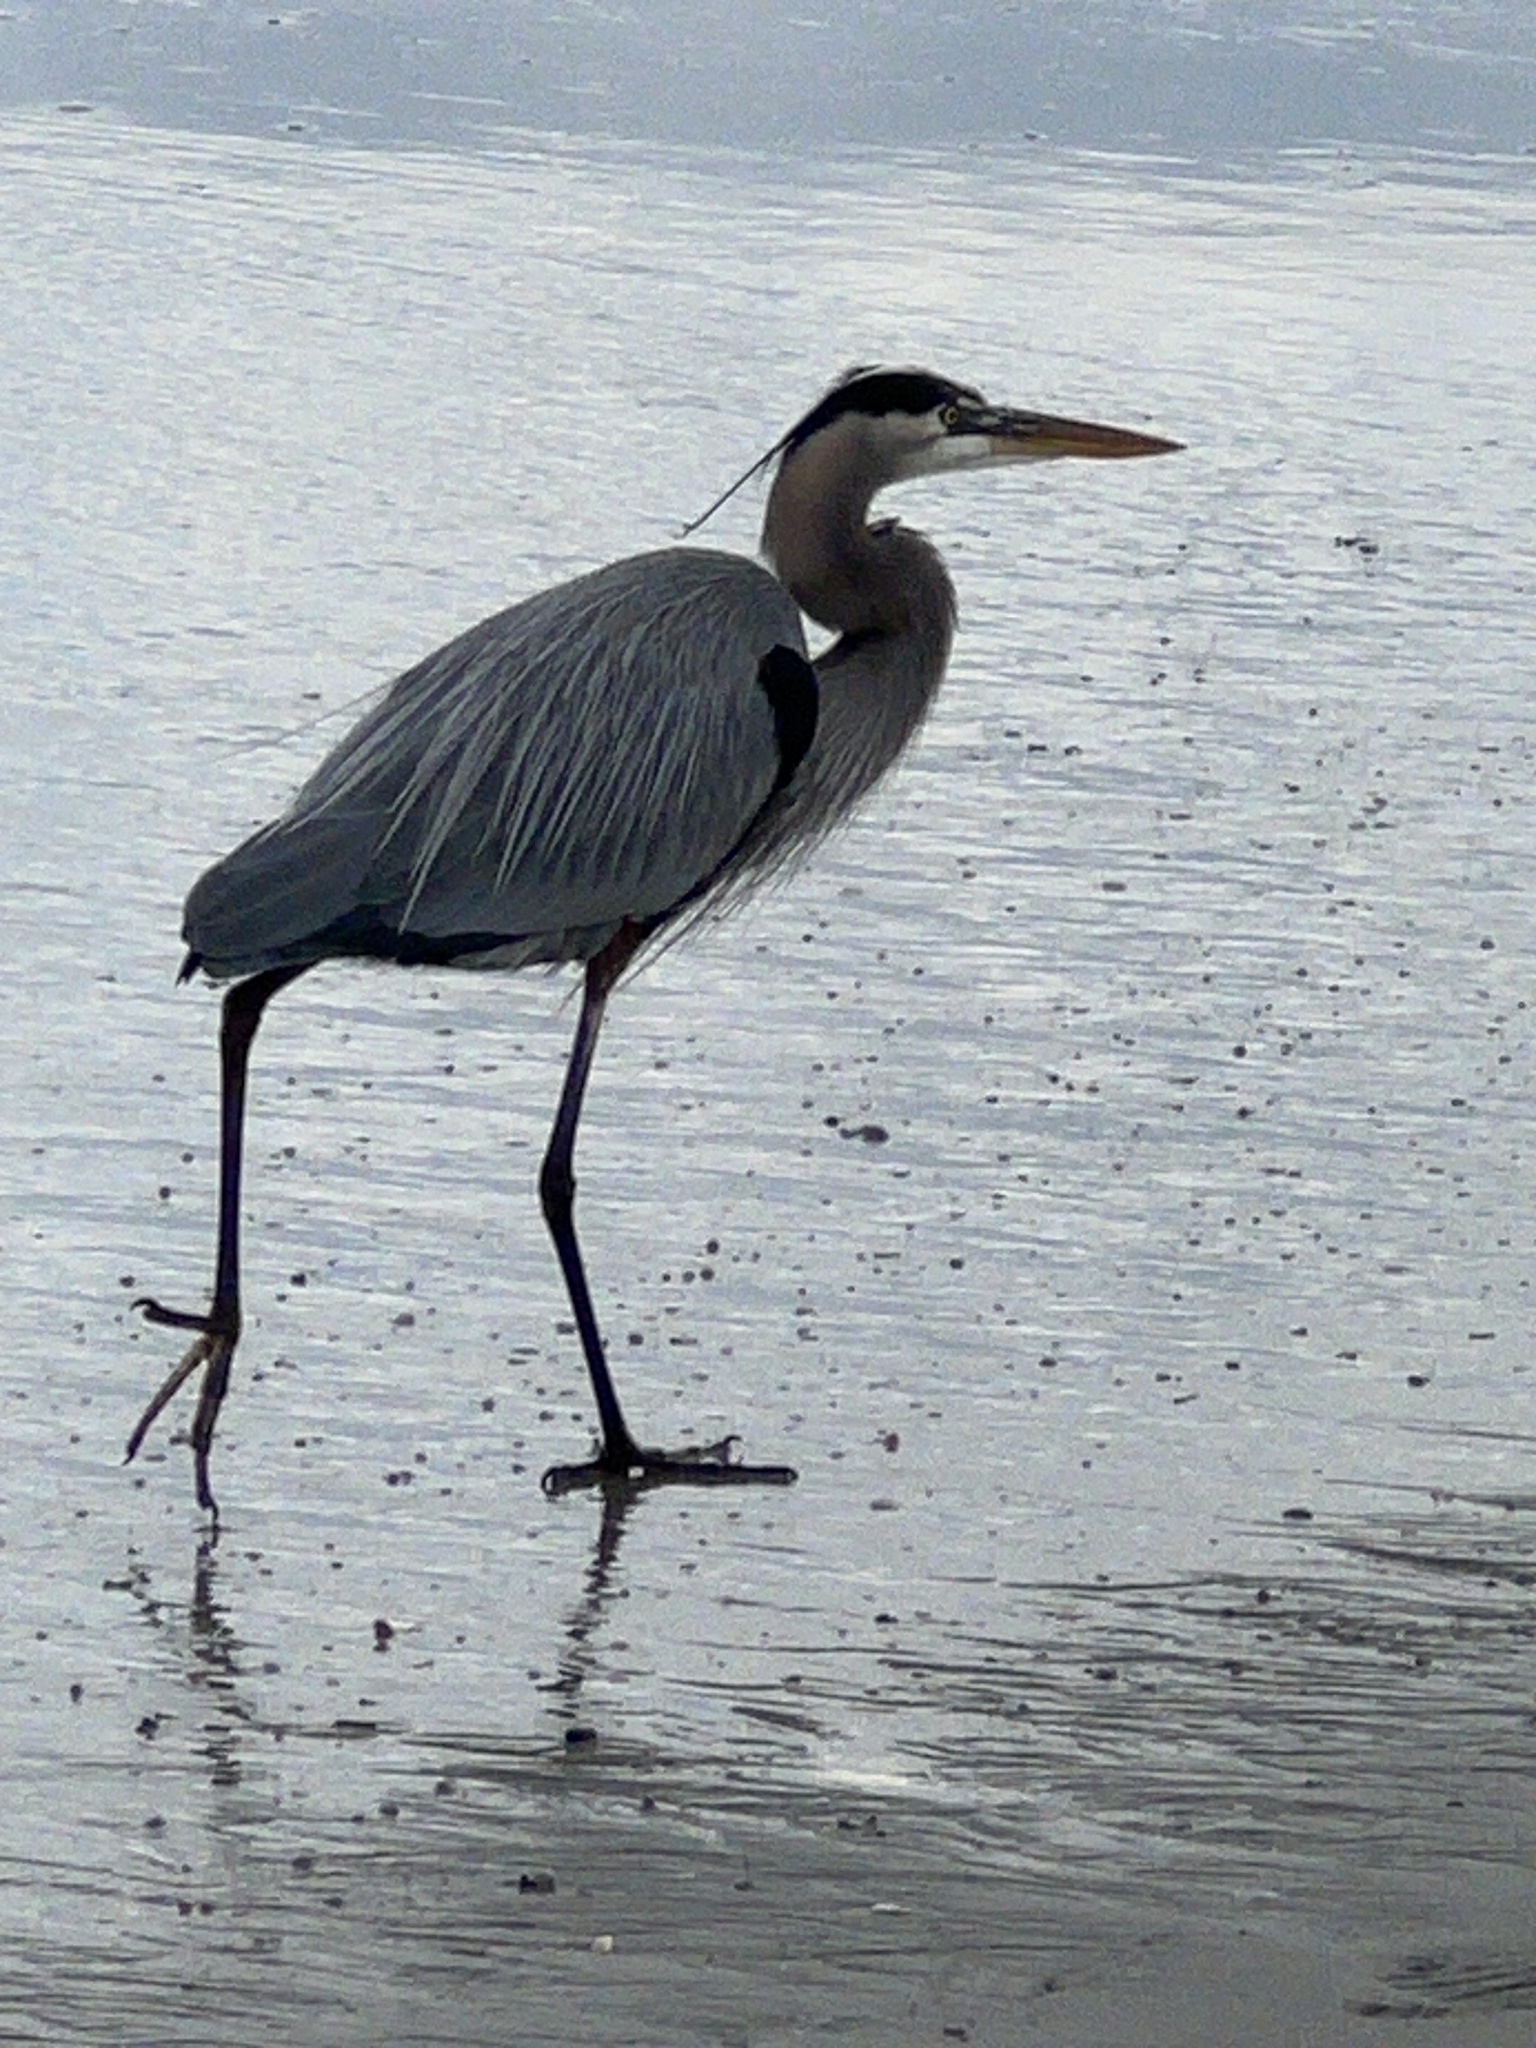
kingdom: Animalia
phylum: Chordata
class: Aves
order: Pelecaniformes
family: Ardeidae
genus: Ardea
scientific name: Ardea herodias
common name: Great blue heron
